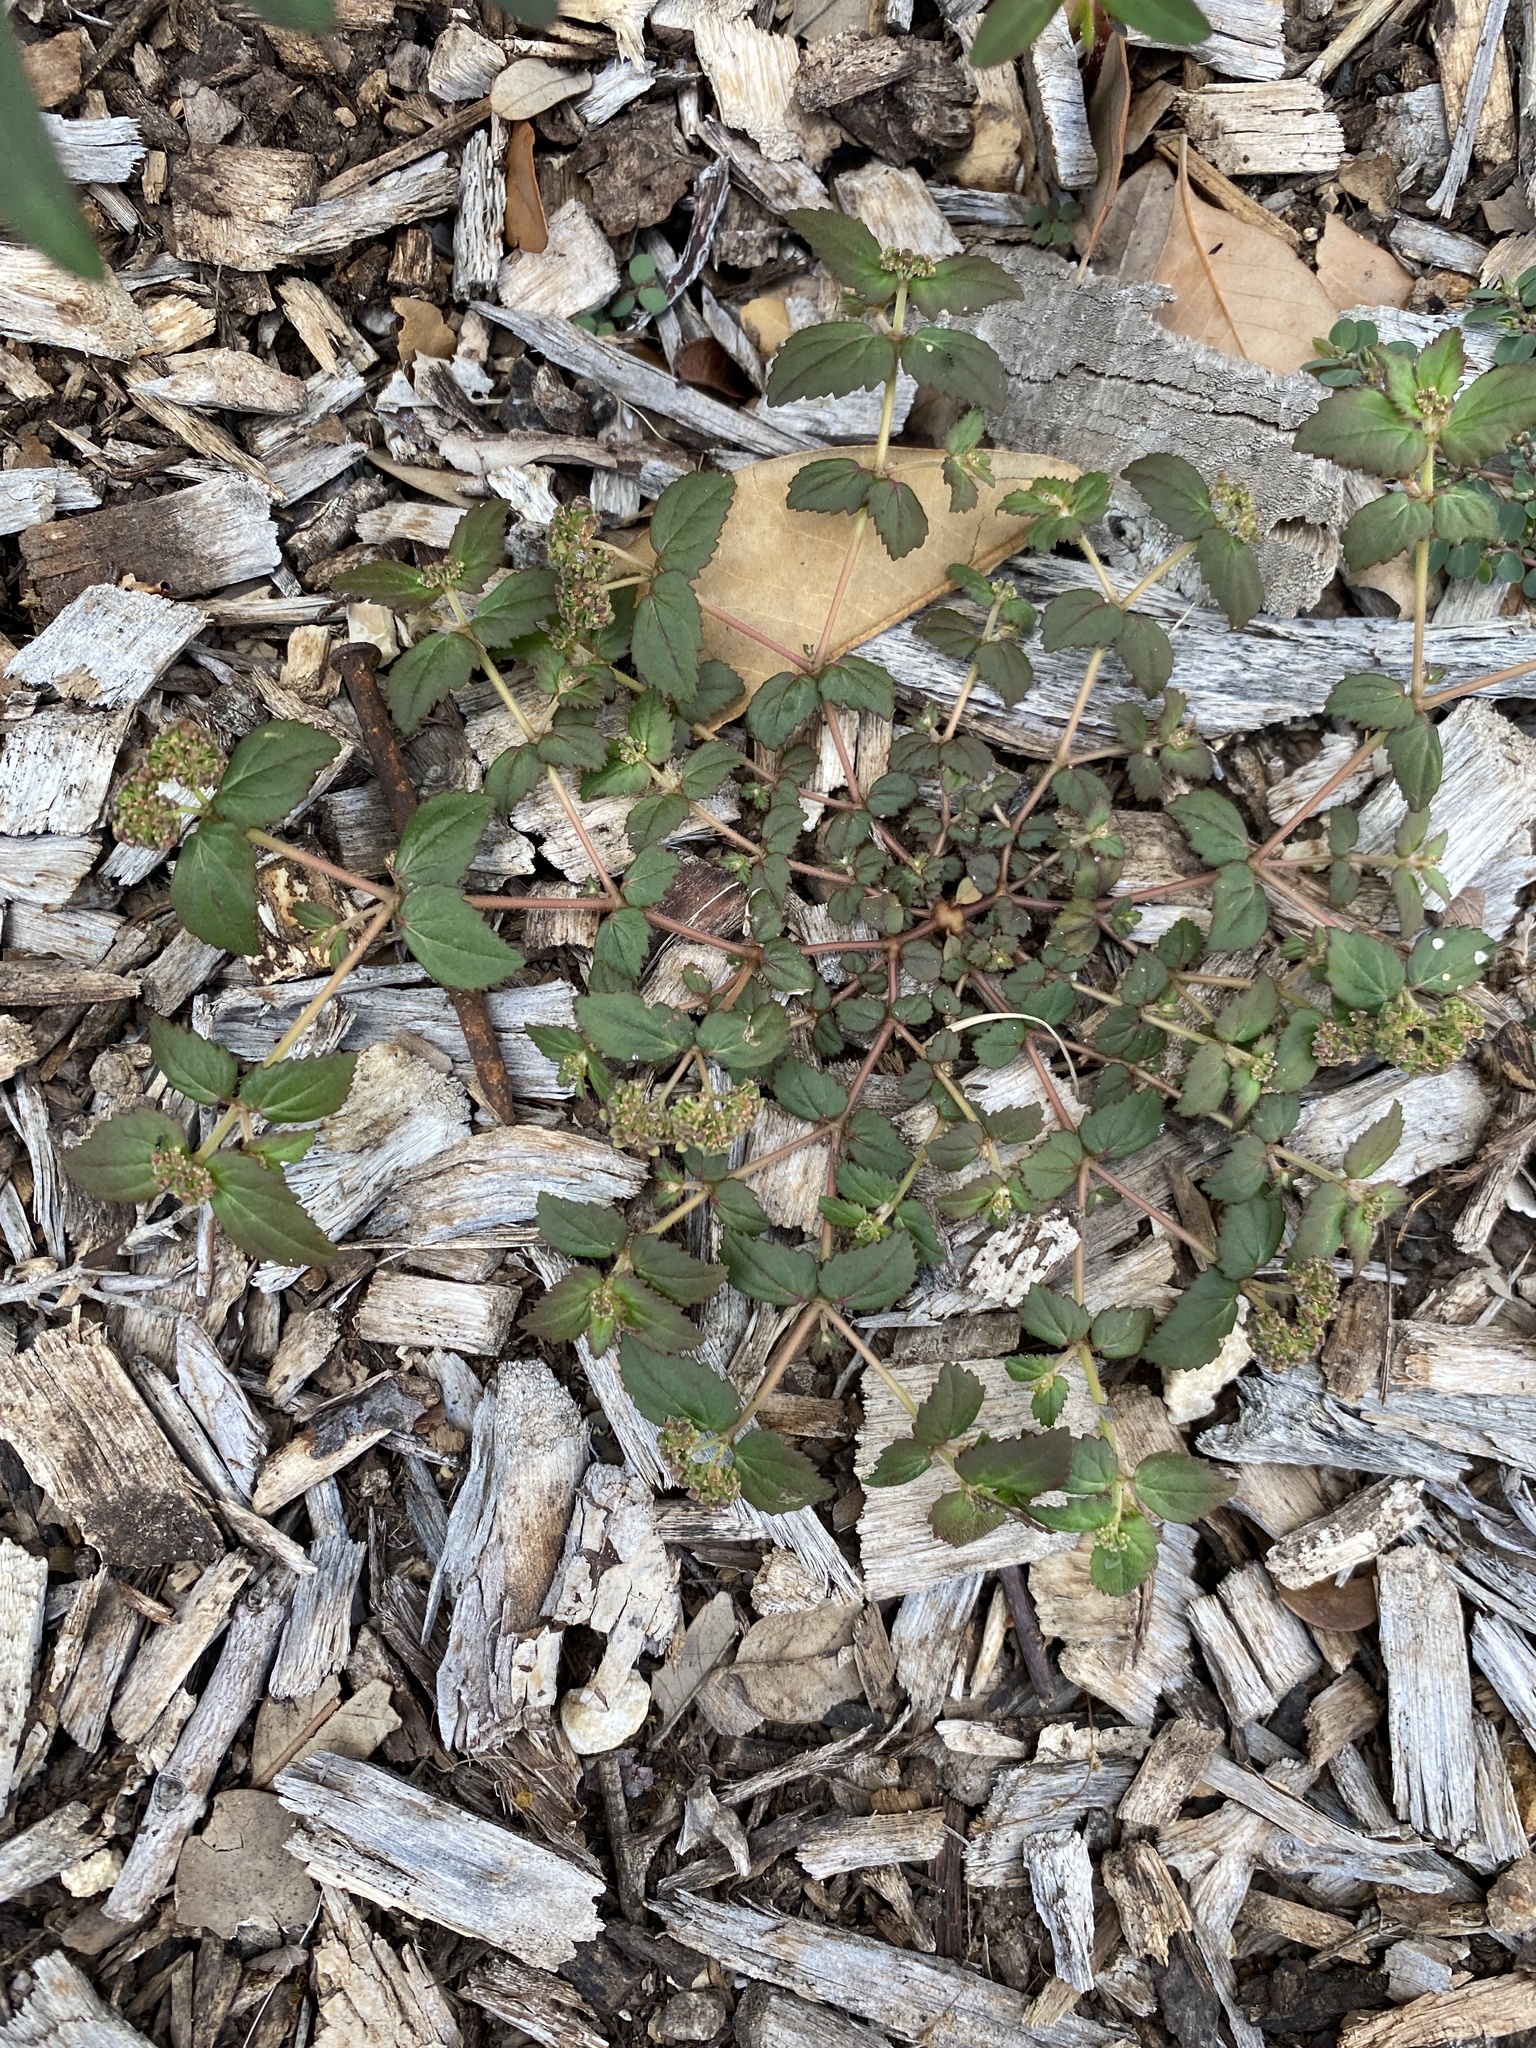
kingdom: Plantae
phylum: Tracheophyta
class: Magnoliopsida
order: Malpighiales
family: Euphorbiaceae
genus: Euphorbia
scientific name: Euphorbia ophthalmica
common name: Florida hammock sandmat
